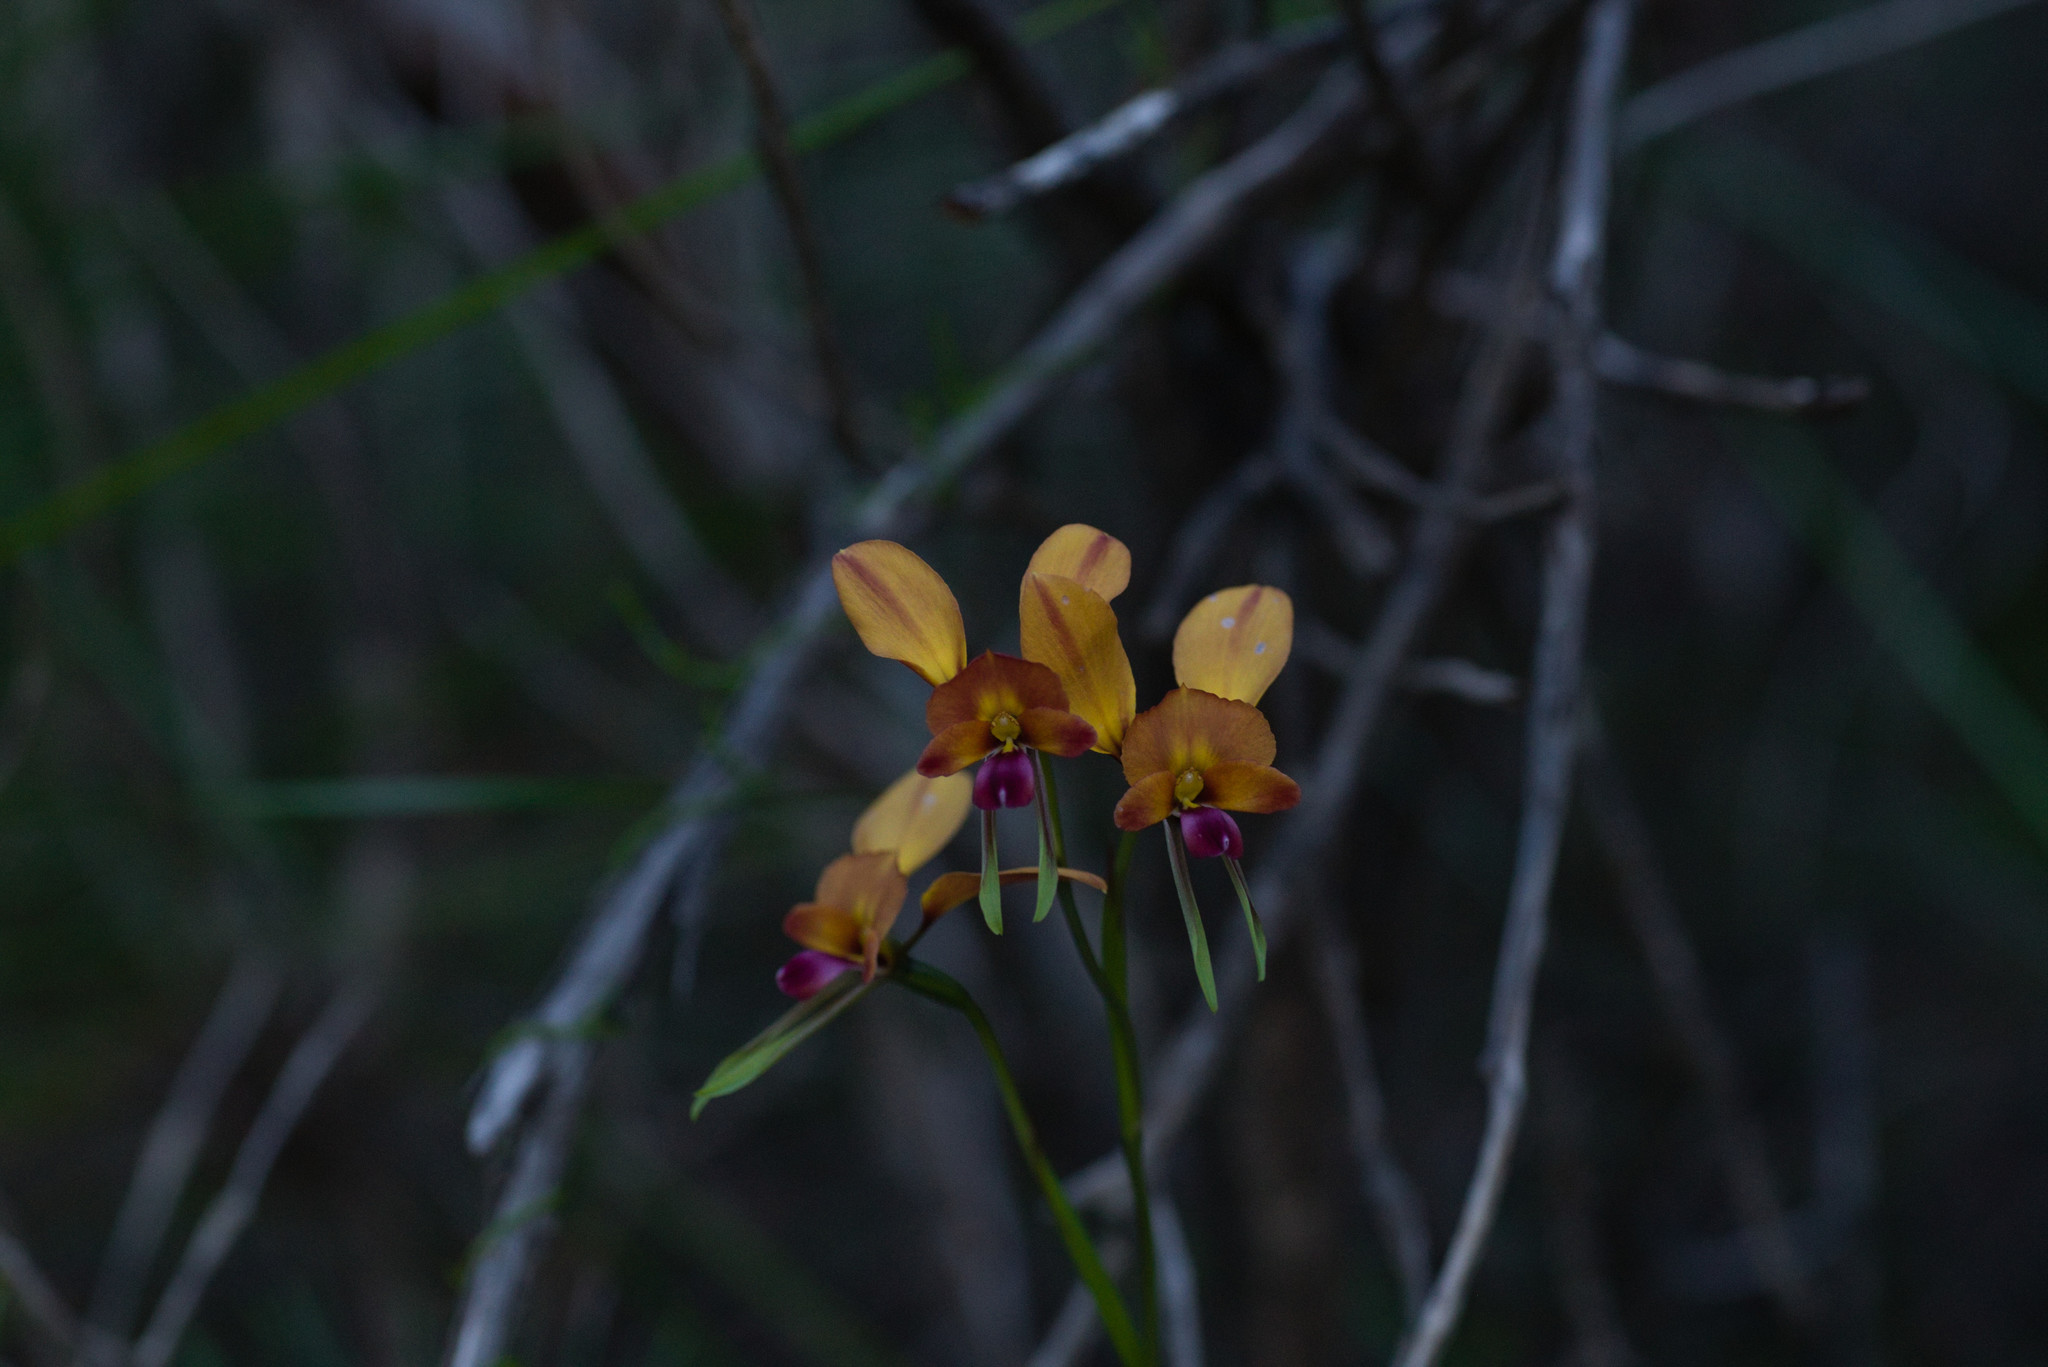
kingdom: Plantae
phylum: Tracheophyta
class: Liliopsida
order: Asparagales
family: Orchidaceae
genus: Diuris
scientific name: Diuris jonesii
